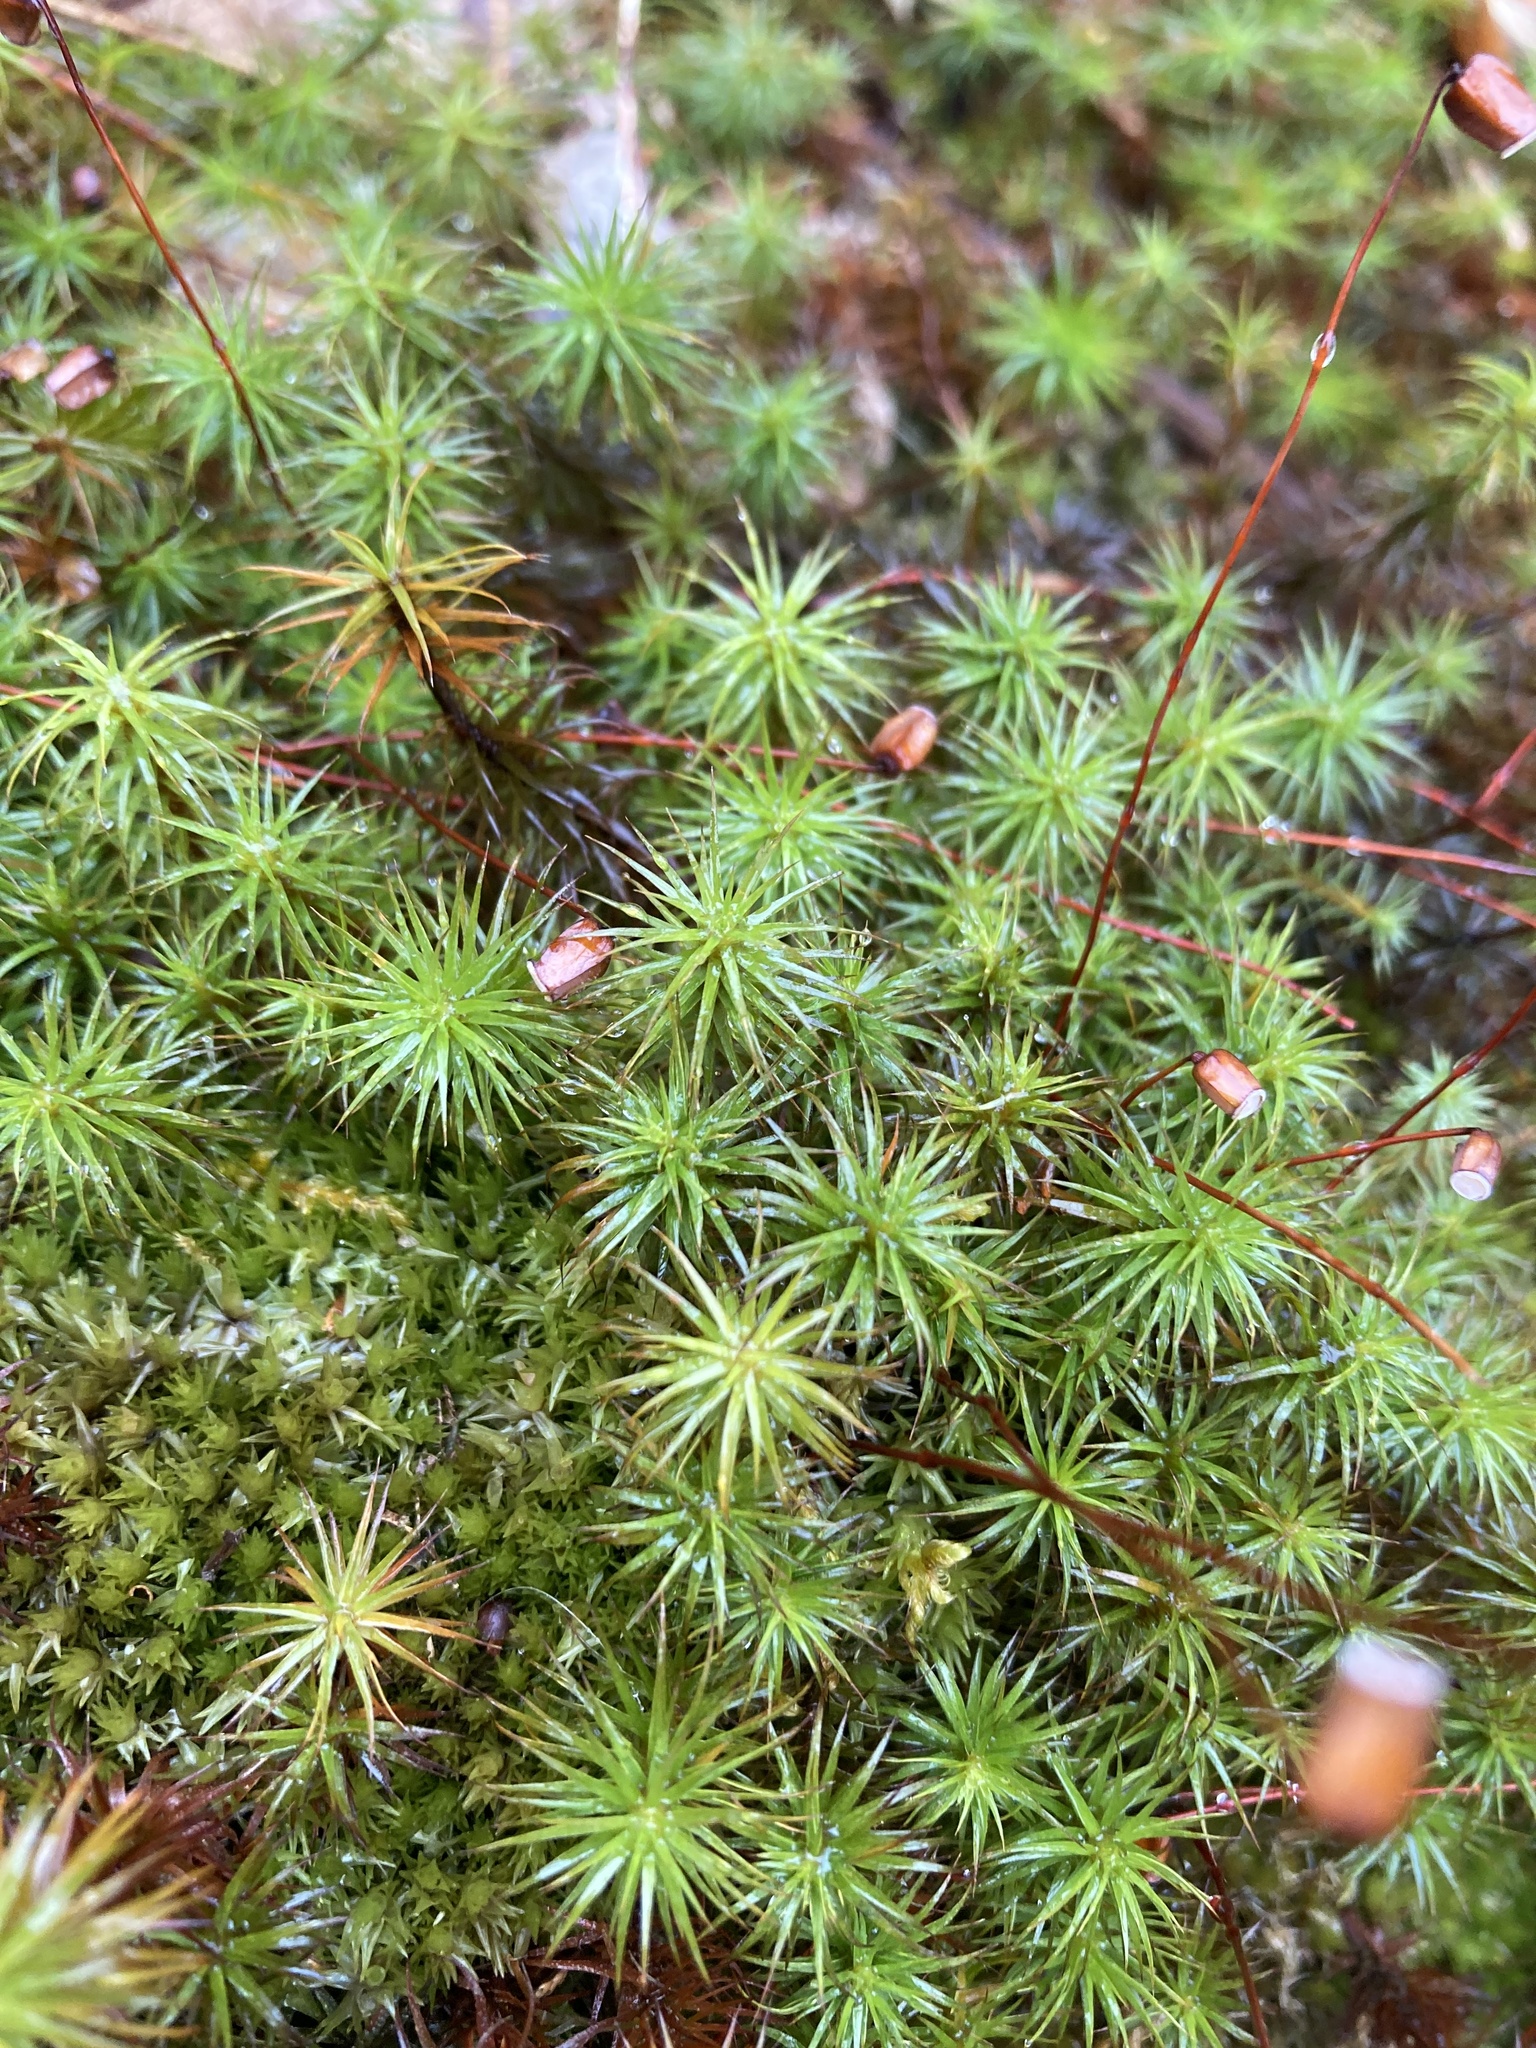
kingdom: Plantae
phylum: Bryophyta
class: Polytrichopsida
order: Polytrichales
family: Polytrichaceae
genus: Polytrichum
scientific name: Polytrichum juniperinum
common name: Juniper haircap moss
